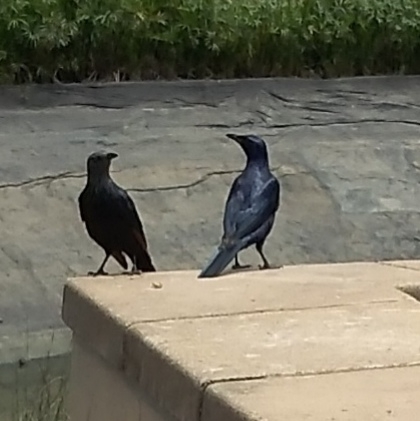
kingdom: Animalia
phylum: Chordata
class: Aves
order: Passeriformes
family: Sturnidae
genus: Onychognathus
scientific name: Onychognathus morio
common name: Red-winged starling
